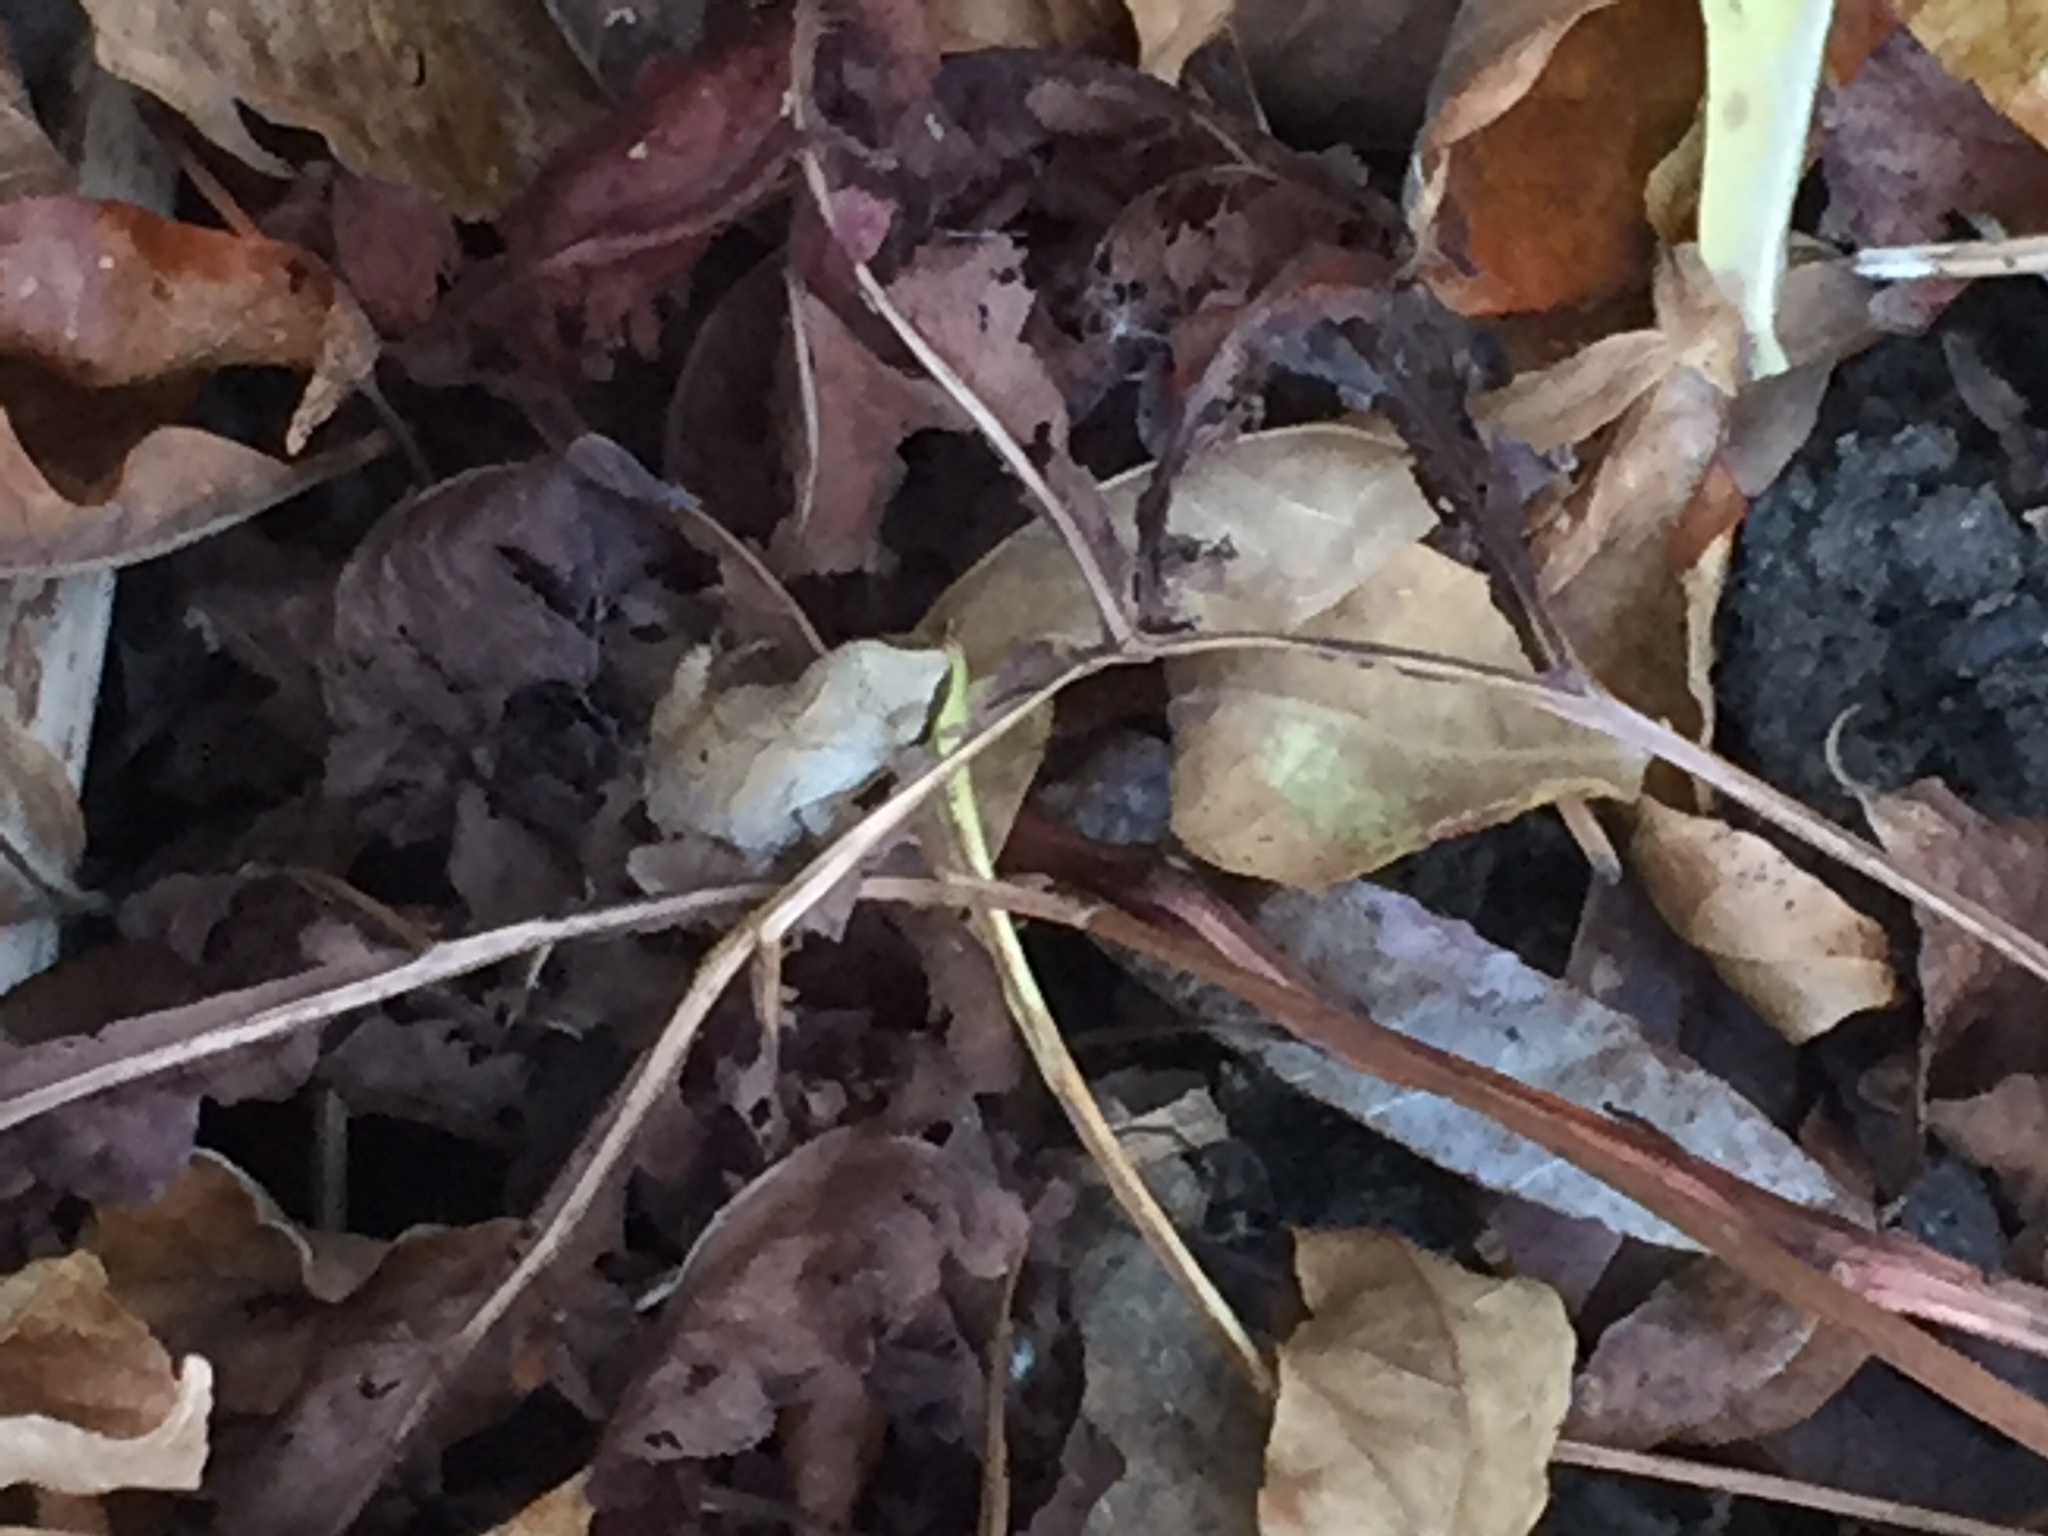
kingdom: Animalia
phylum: Chordata
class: Amphibia
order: Anura
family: Hylidae
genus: Pseudacris
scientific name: Pseudacris crucifer
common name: Spring peeper
